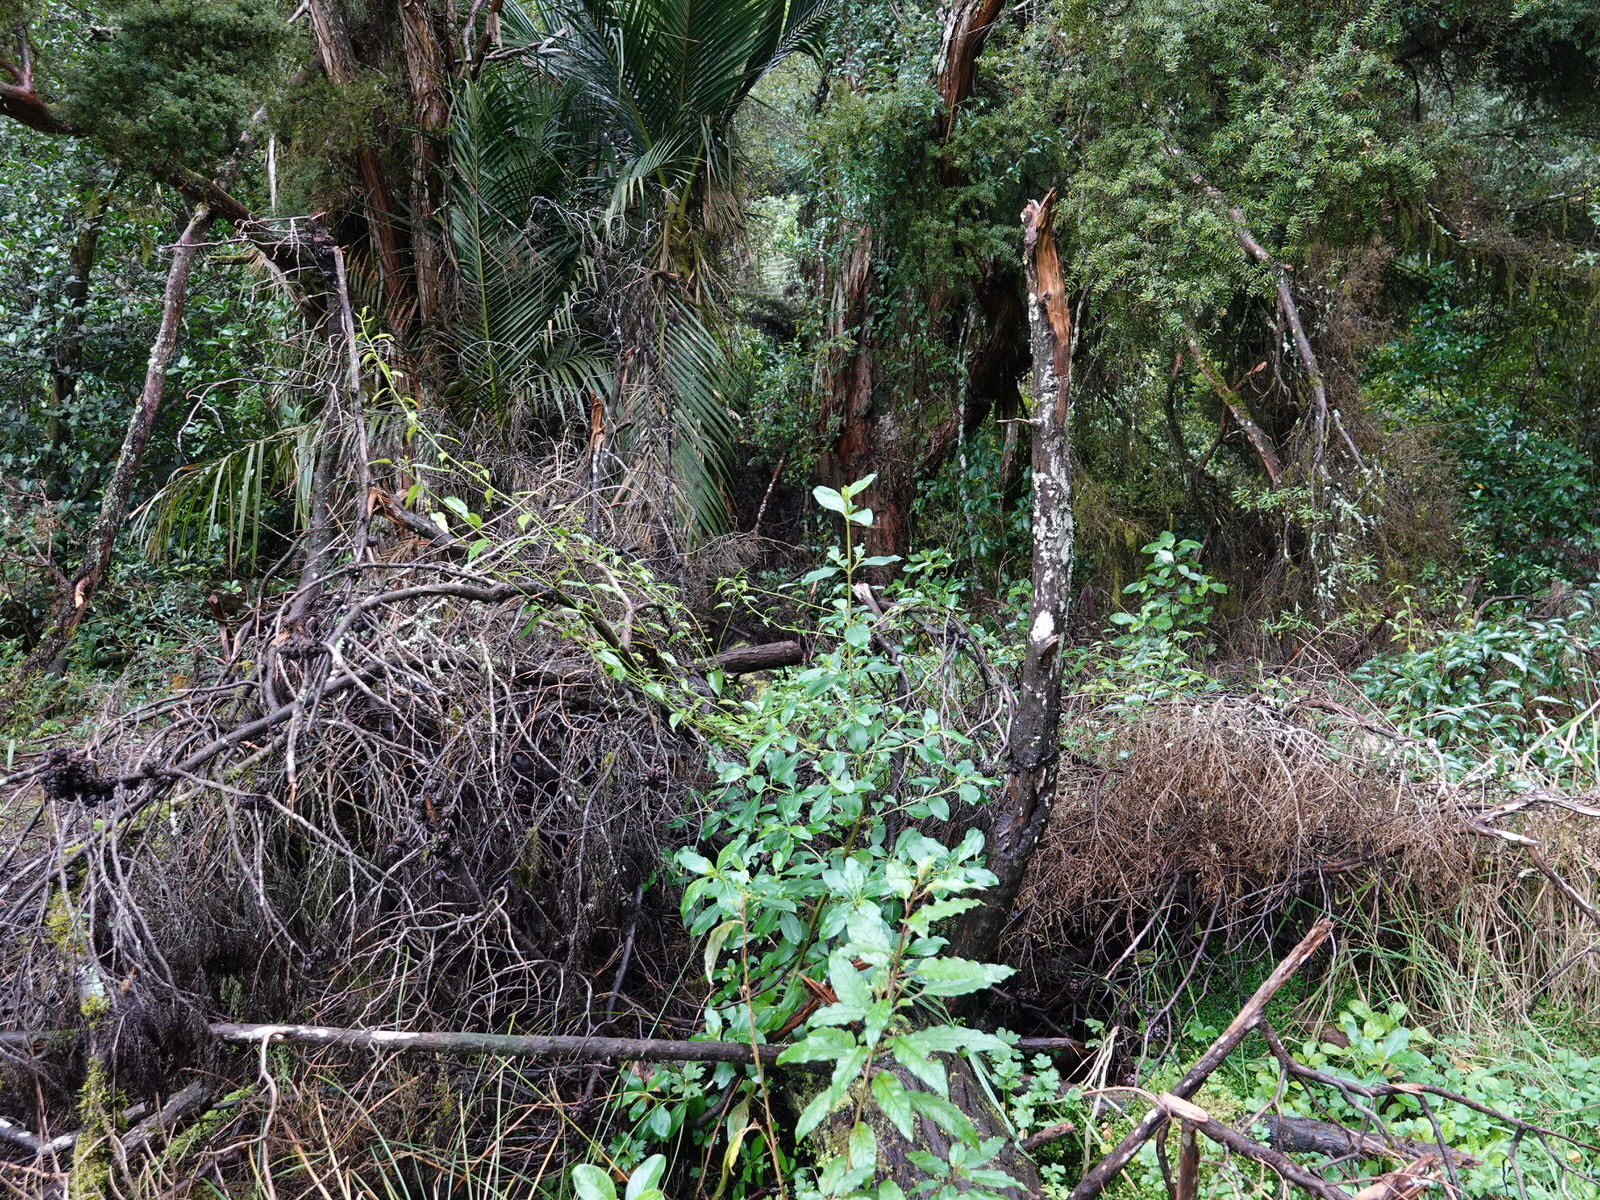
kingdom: Plantae
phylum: Tracheophyta
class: Magnoliopsida
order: Malpighiales
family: Passifloraceae
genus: Passiflora
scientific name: Passiflora tetrandra
